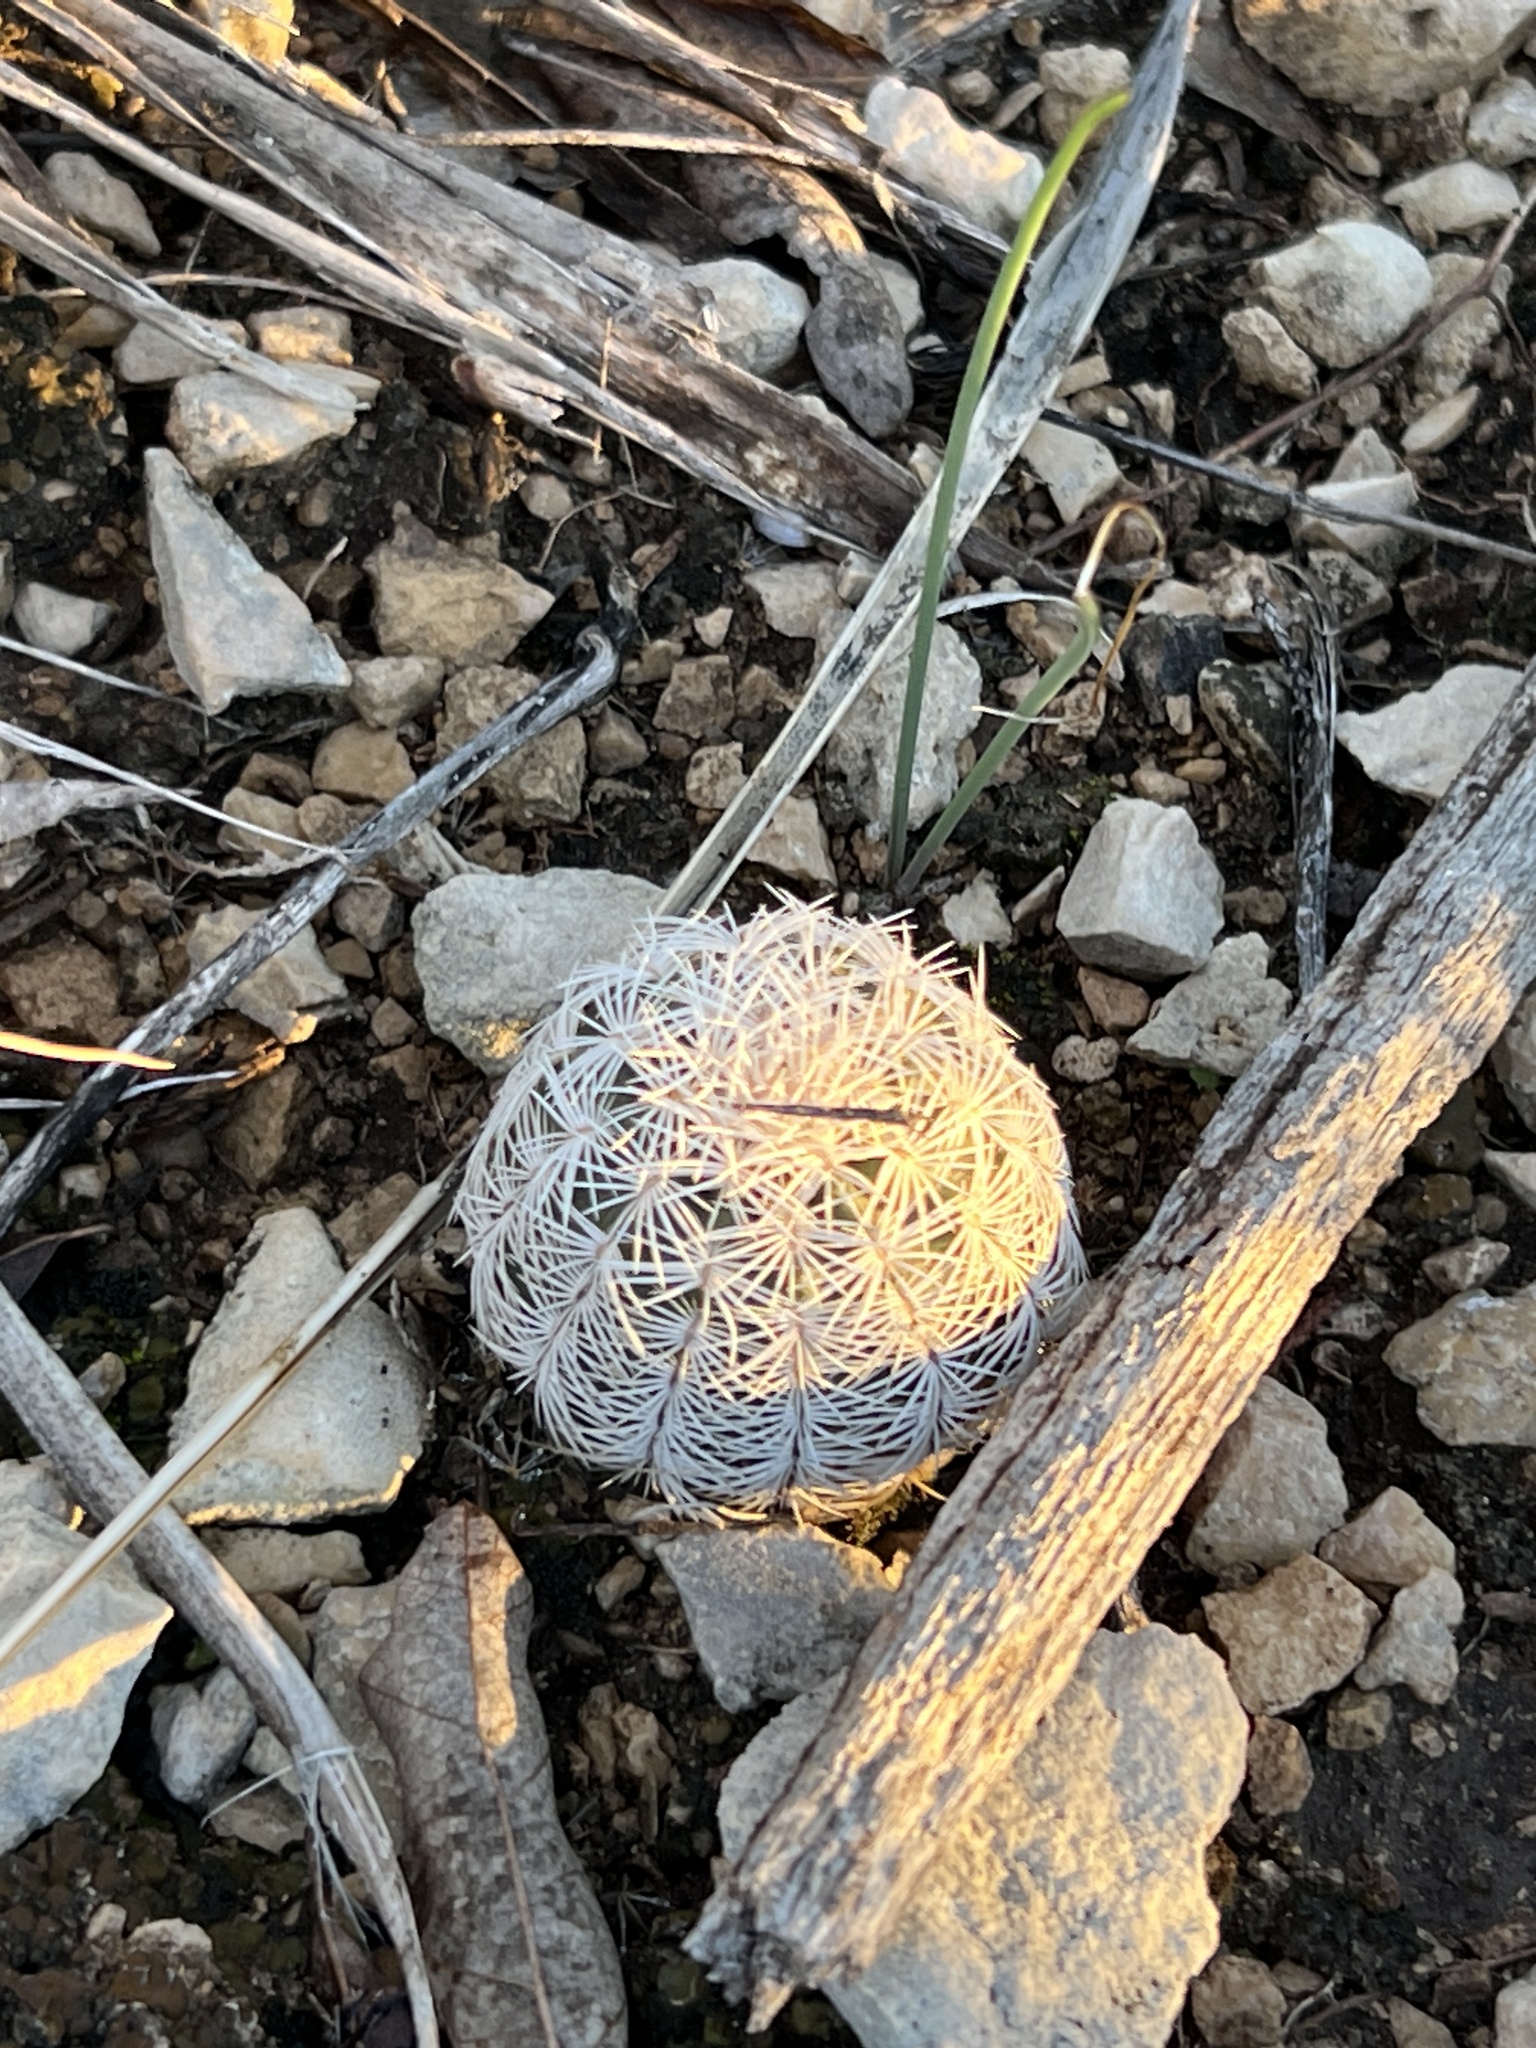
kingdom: Plantae
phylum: Tracheophyta
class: Magnoliopsida
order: Caryophyllales
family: Cactaceae
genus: Echinocereus
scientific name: Echinocereus reichenbachii
